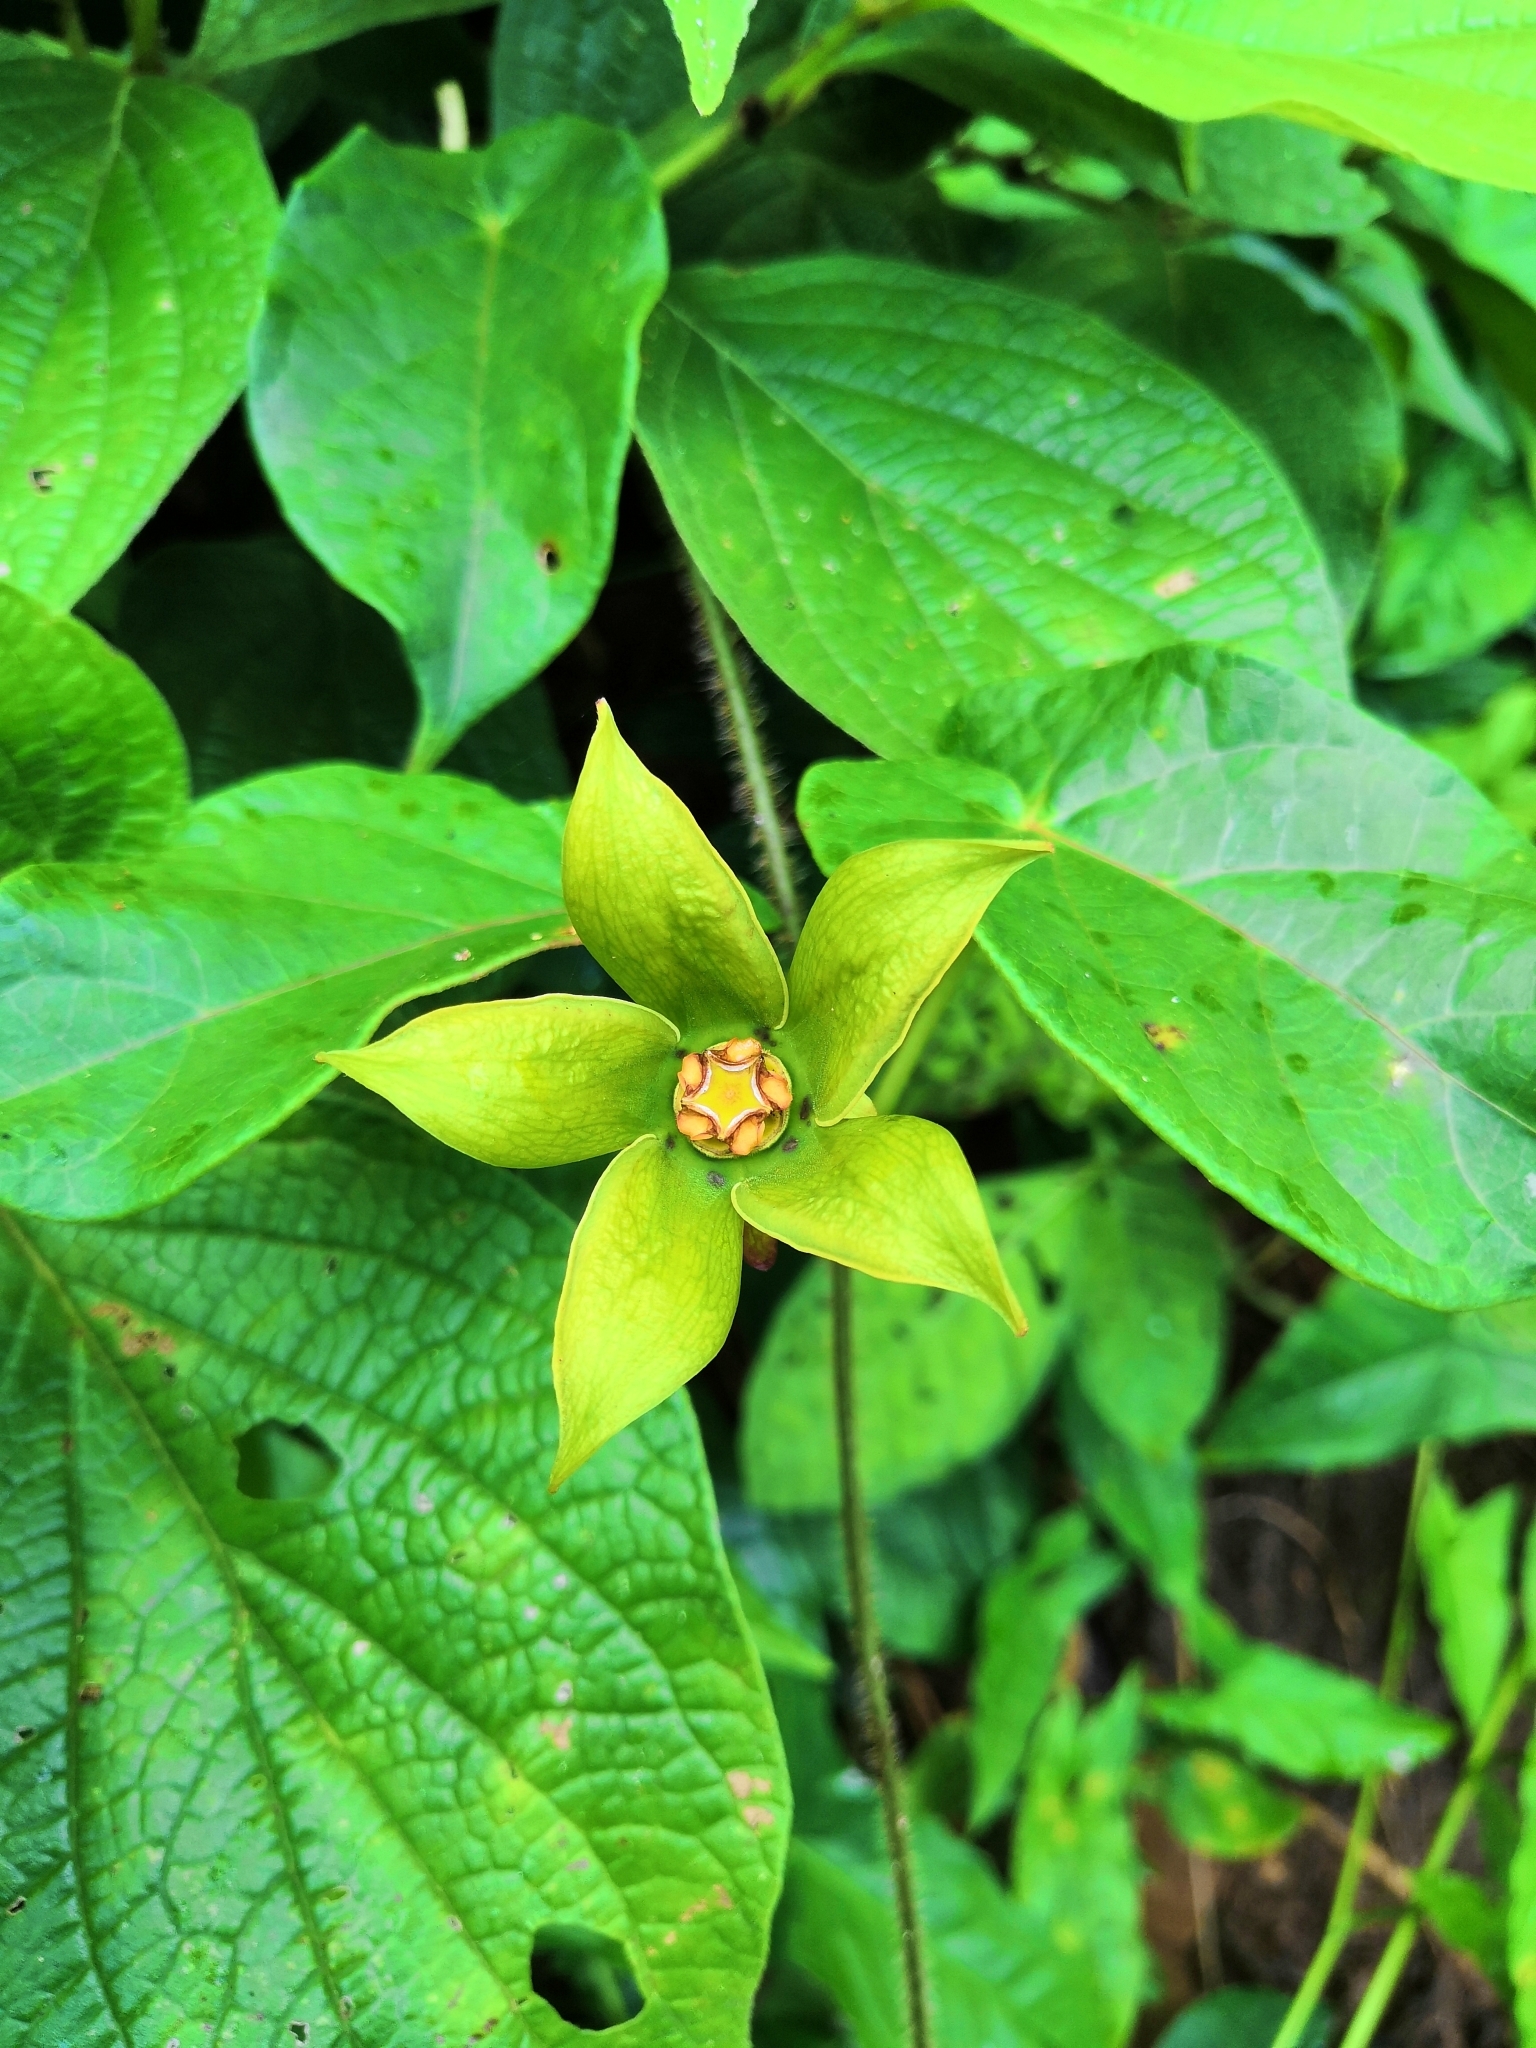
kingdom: Plantae
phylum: Tracheophyta
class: Magnoliopsida
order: Gentianales
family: Apocynaceae
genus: Gonolobus
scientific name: Gonolobus pancololote
